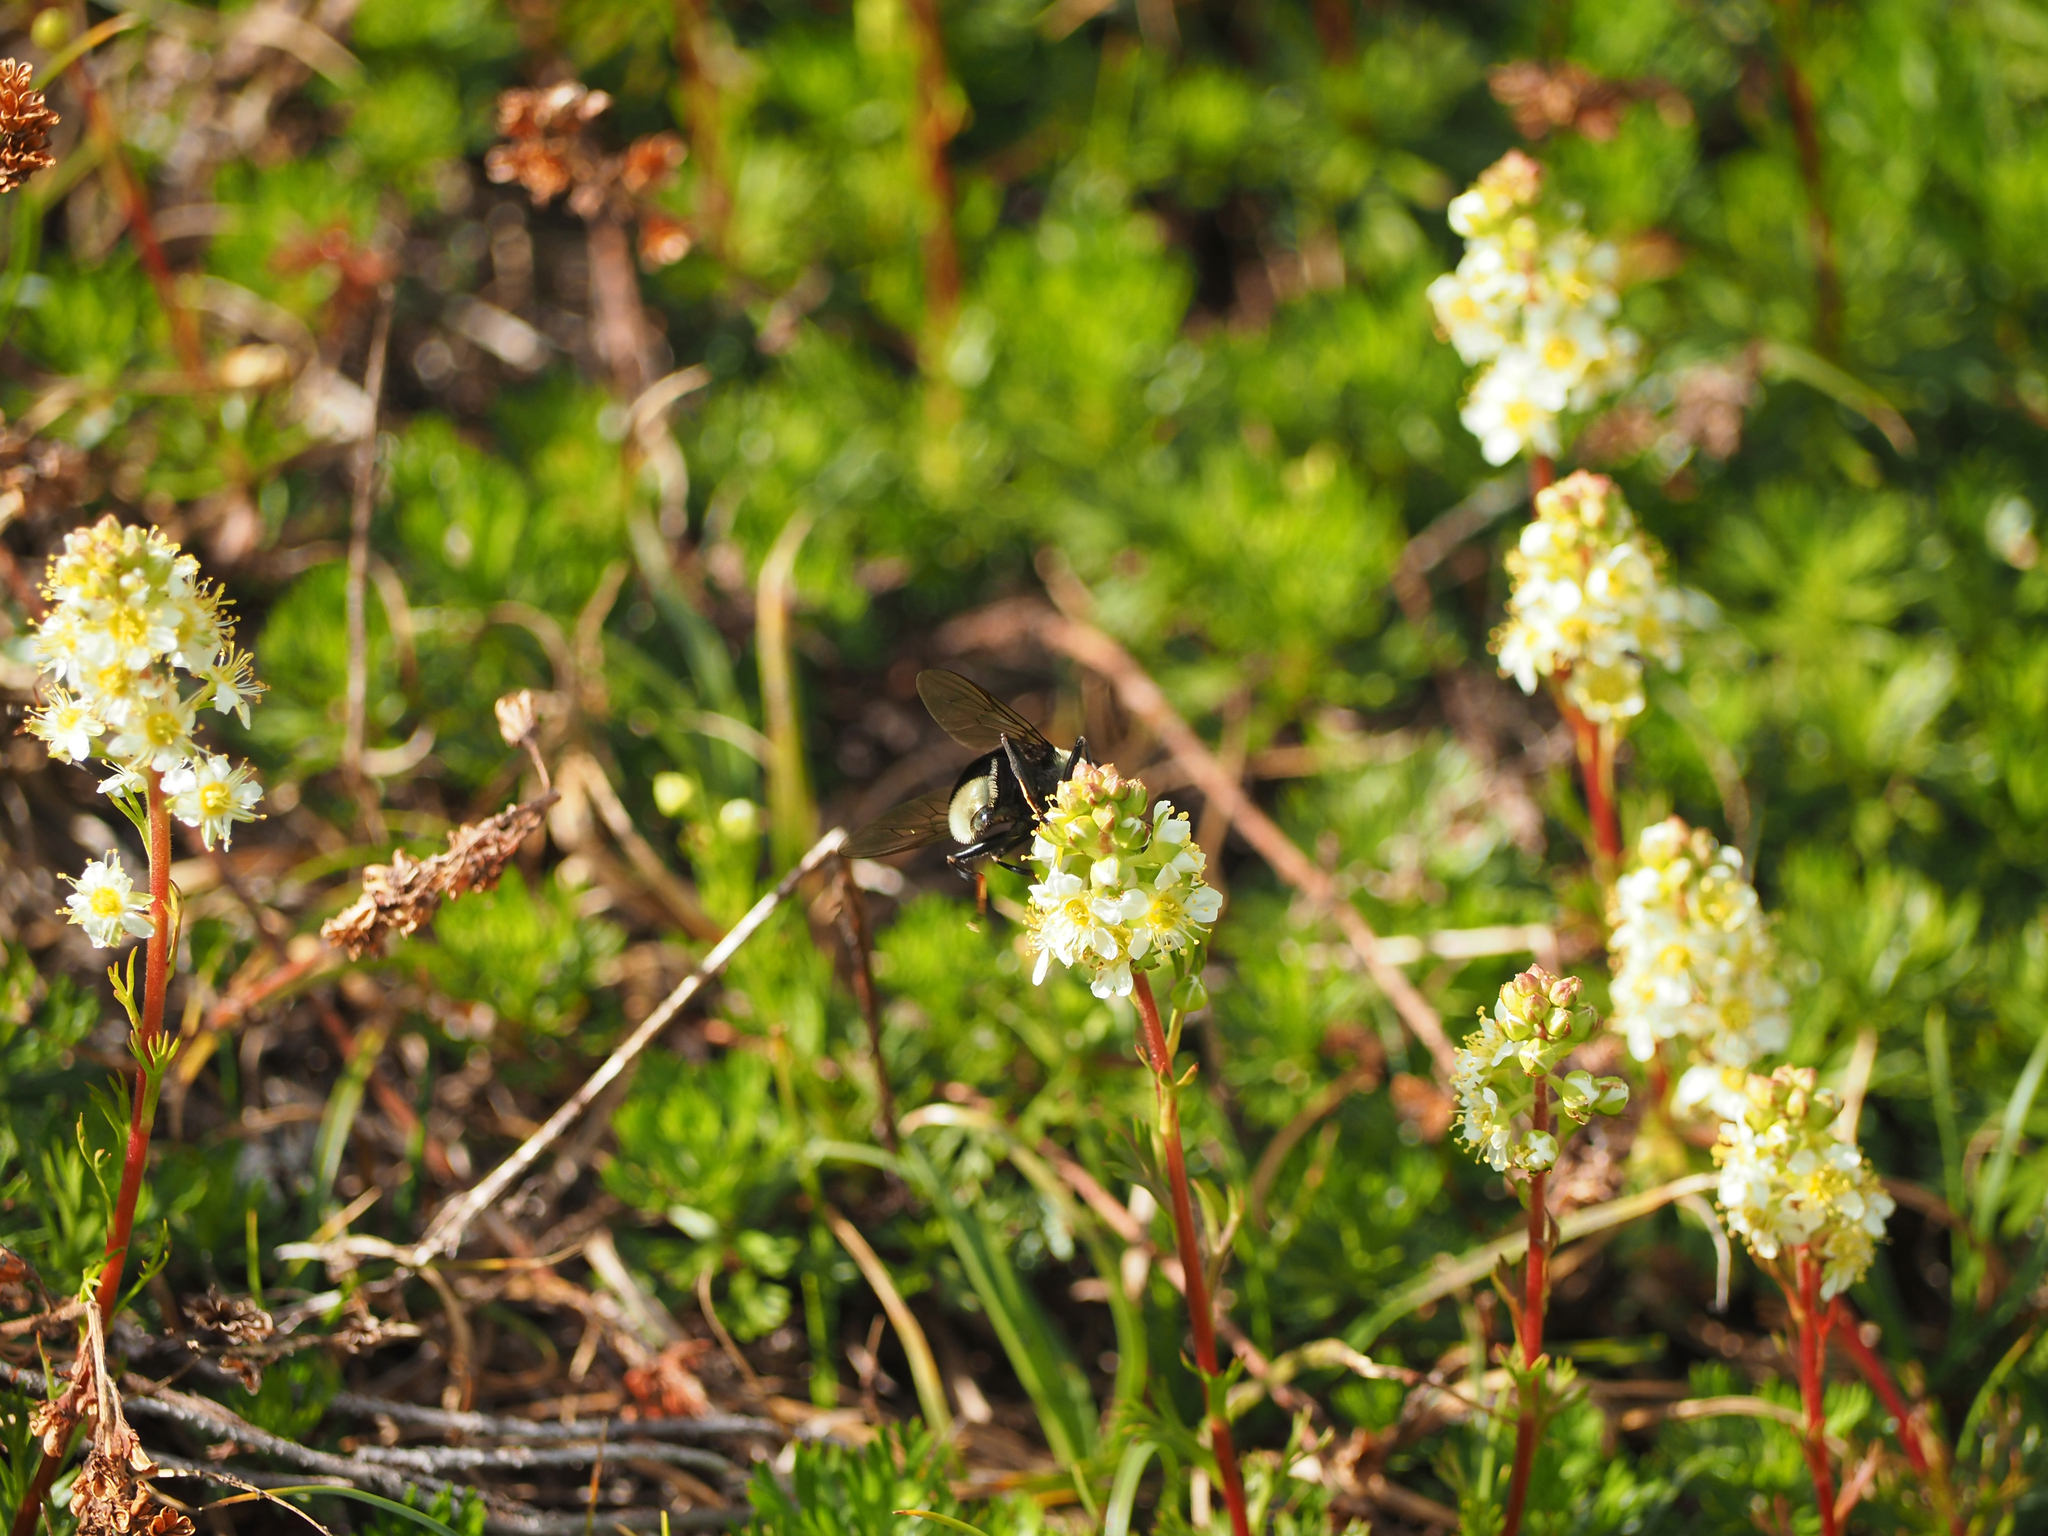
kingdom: Plantae
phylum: Tracheophyta
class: Magnoliopsida
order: Rosales
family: Rosaceae
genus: Luetkea
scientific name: Luetkea pectinata
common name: Partridgefoot
